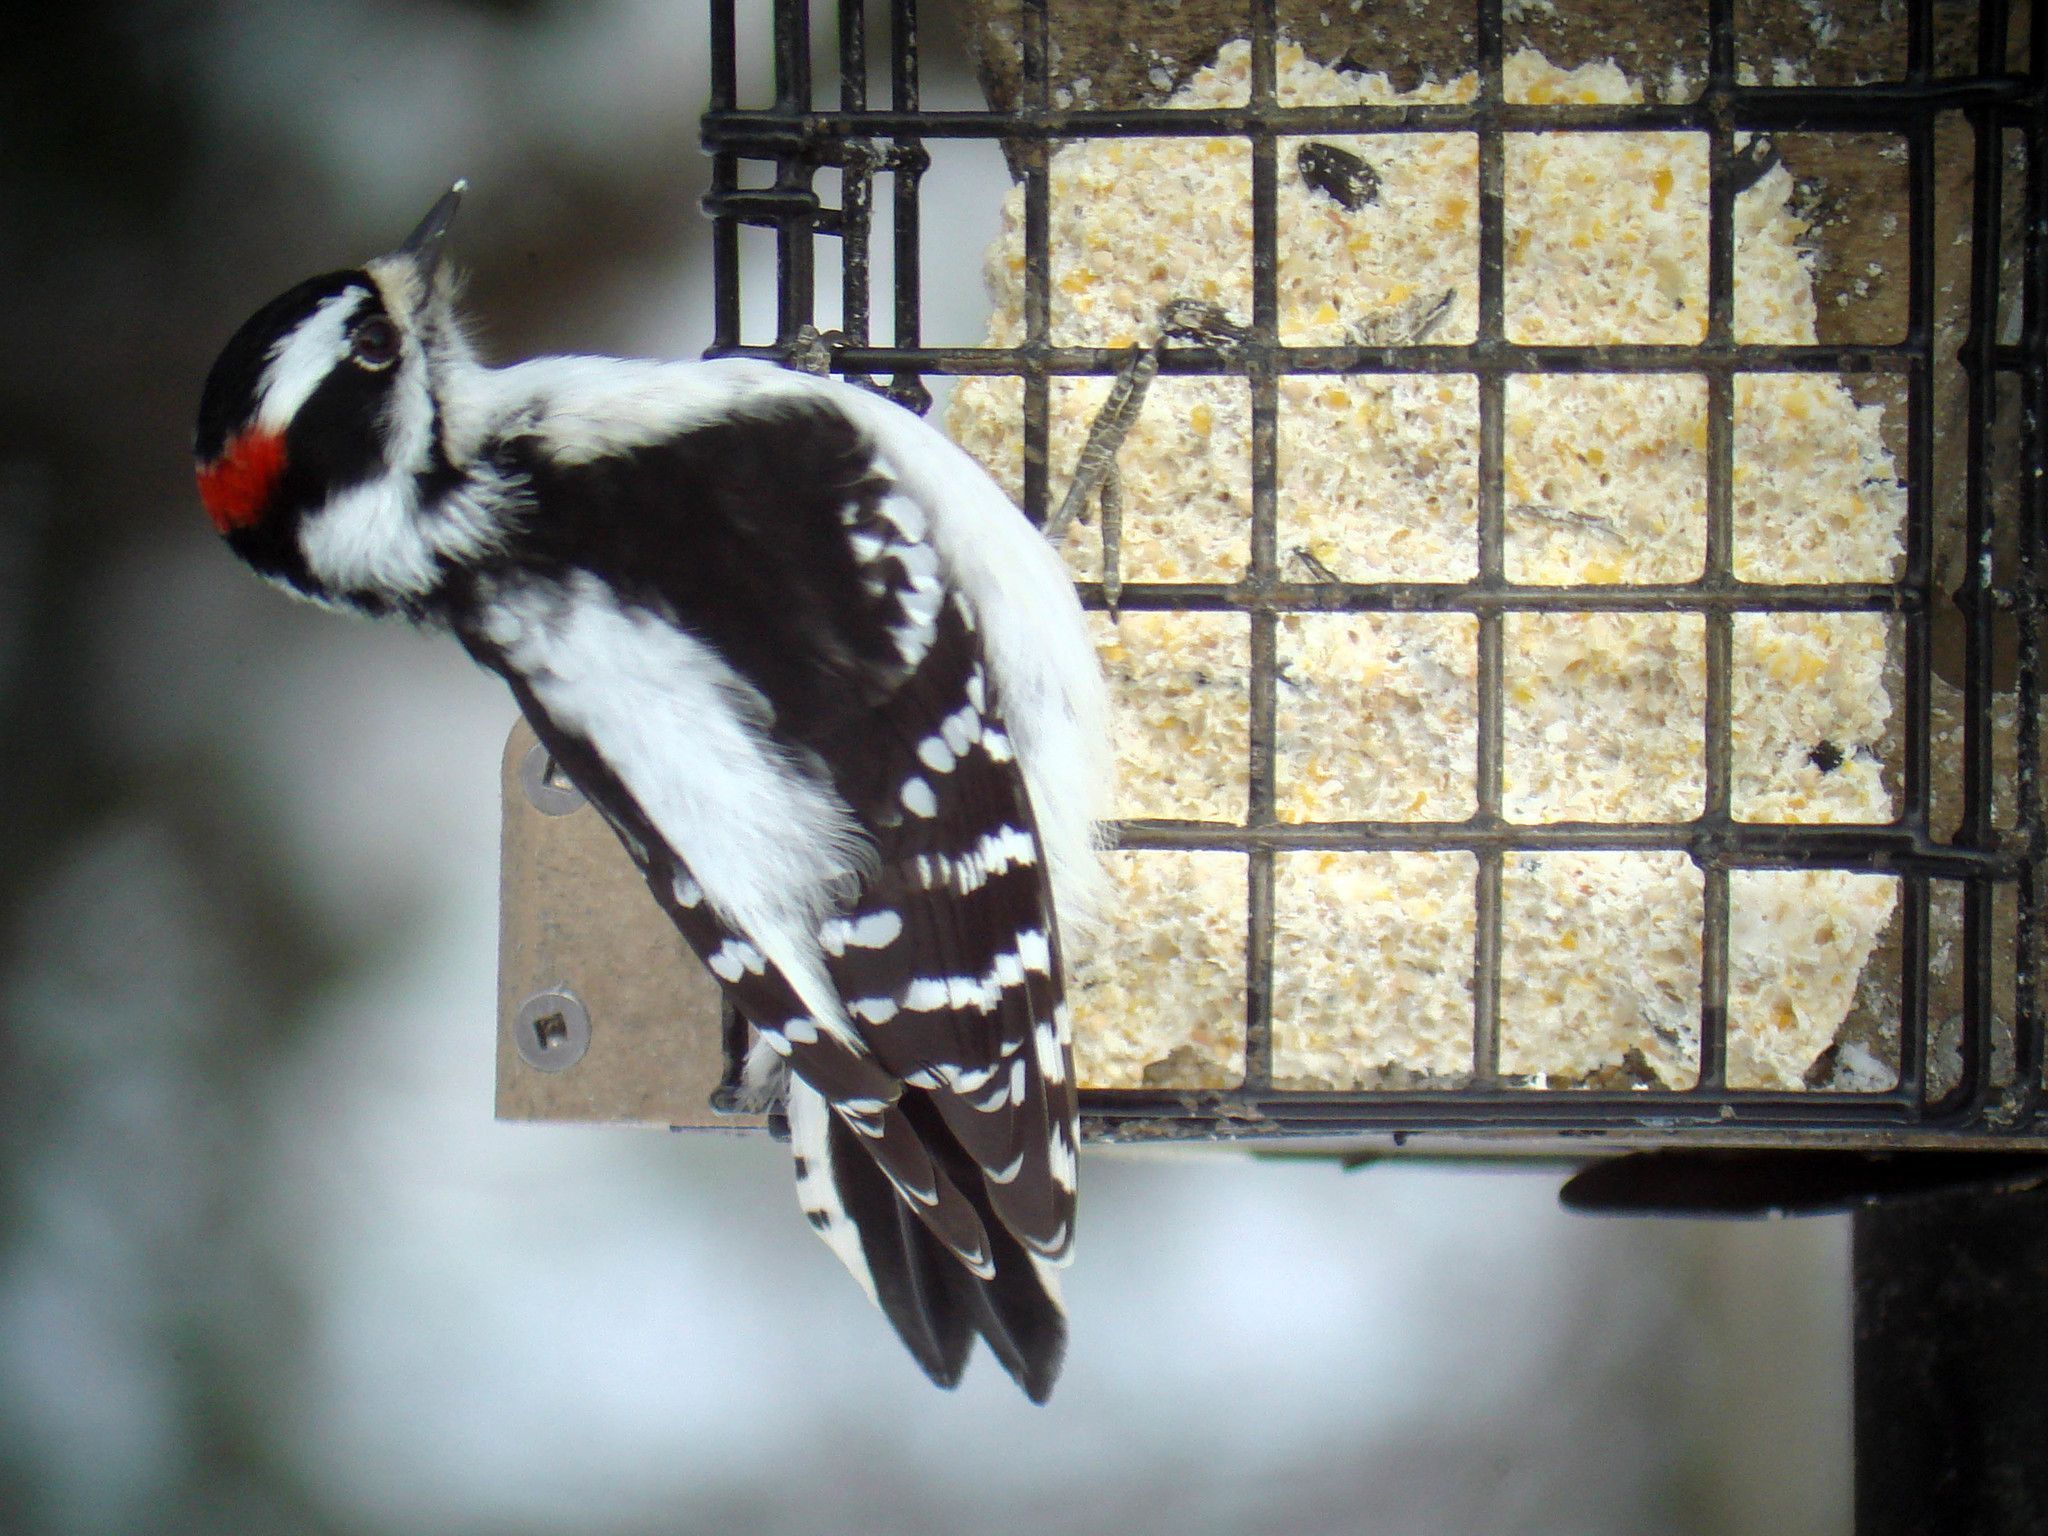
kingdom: Animalia
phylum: Chordata
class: Aves
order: Piciformes
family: Picidae
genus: Dryobates
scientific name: Dryobates pubescens
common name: Downy woodpecker
